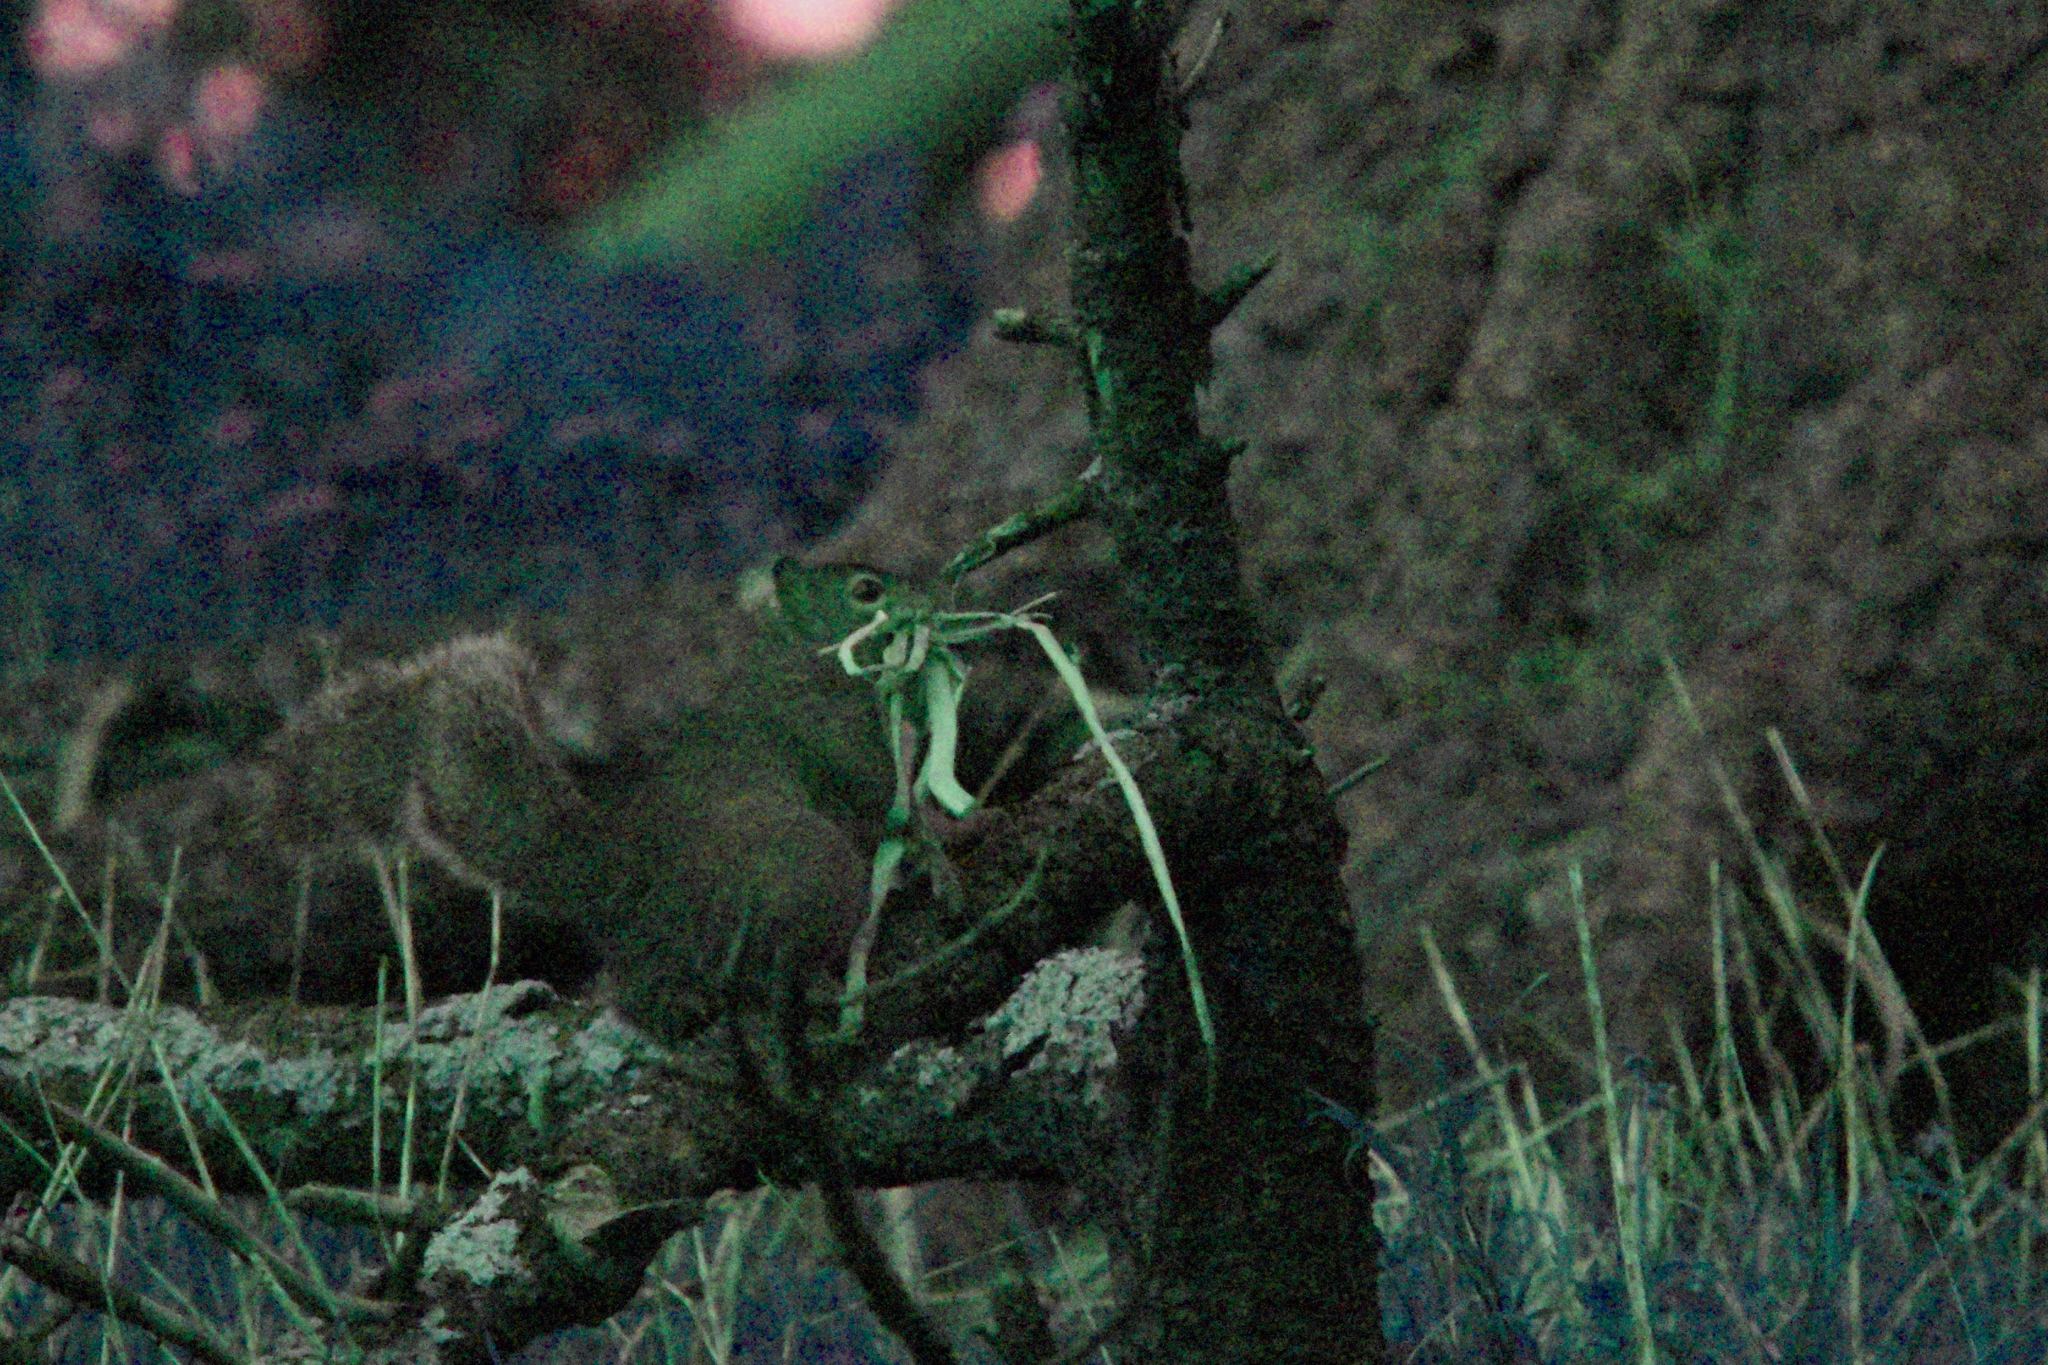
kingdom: Animalia
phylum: Chordata
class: Mammalia
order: Rodentia
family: Sciuridae
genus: Sciurus
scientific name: Sciurus carolinensis
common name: Eastern gray squirrel
